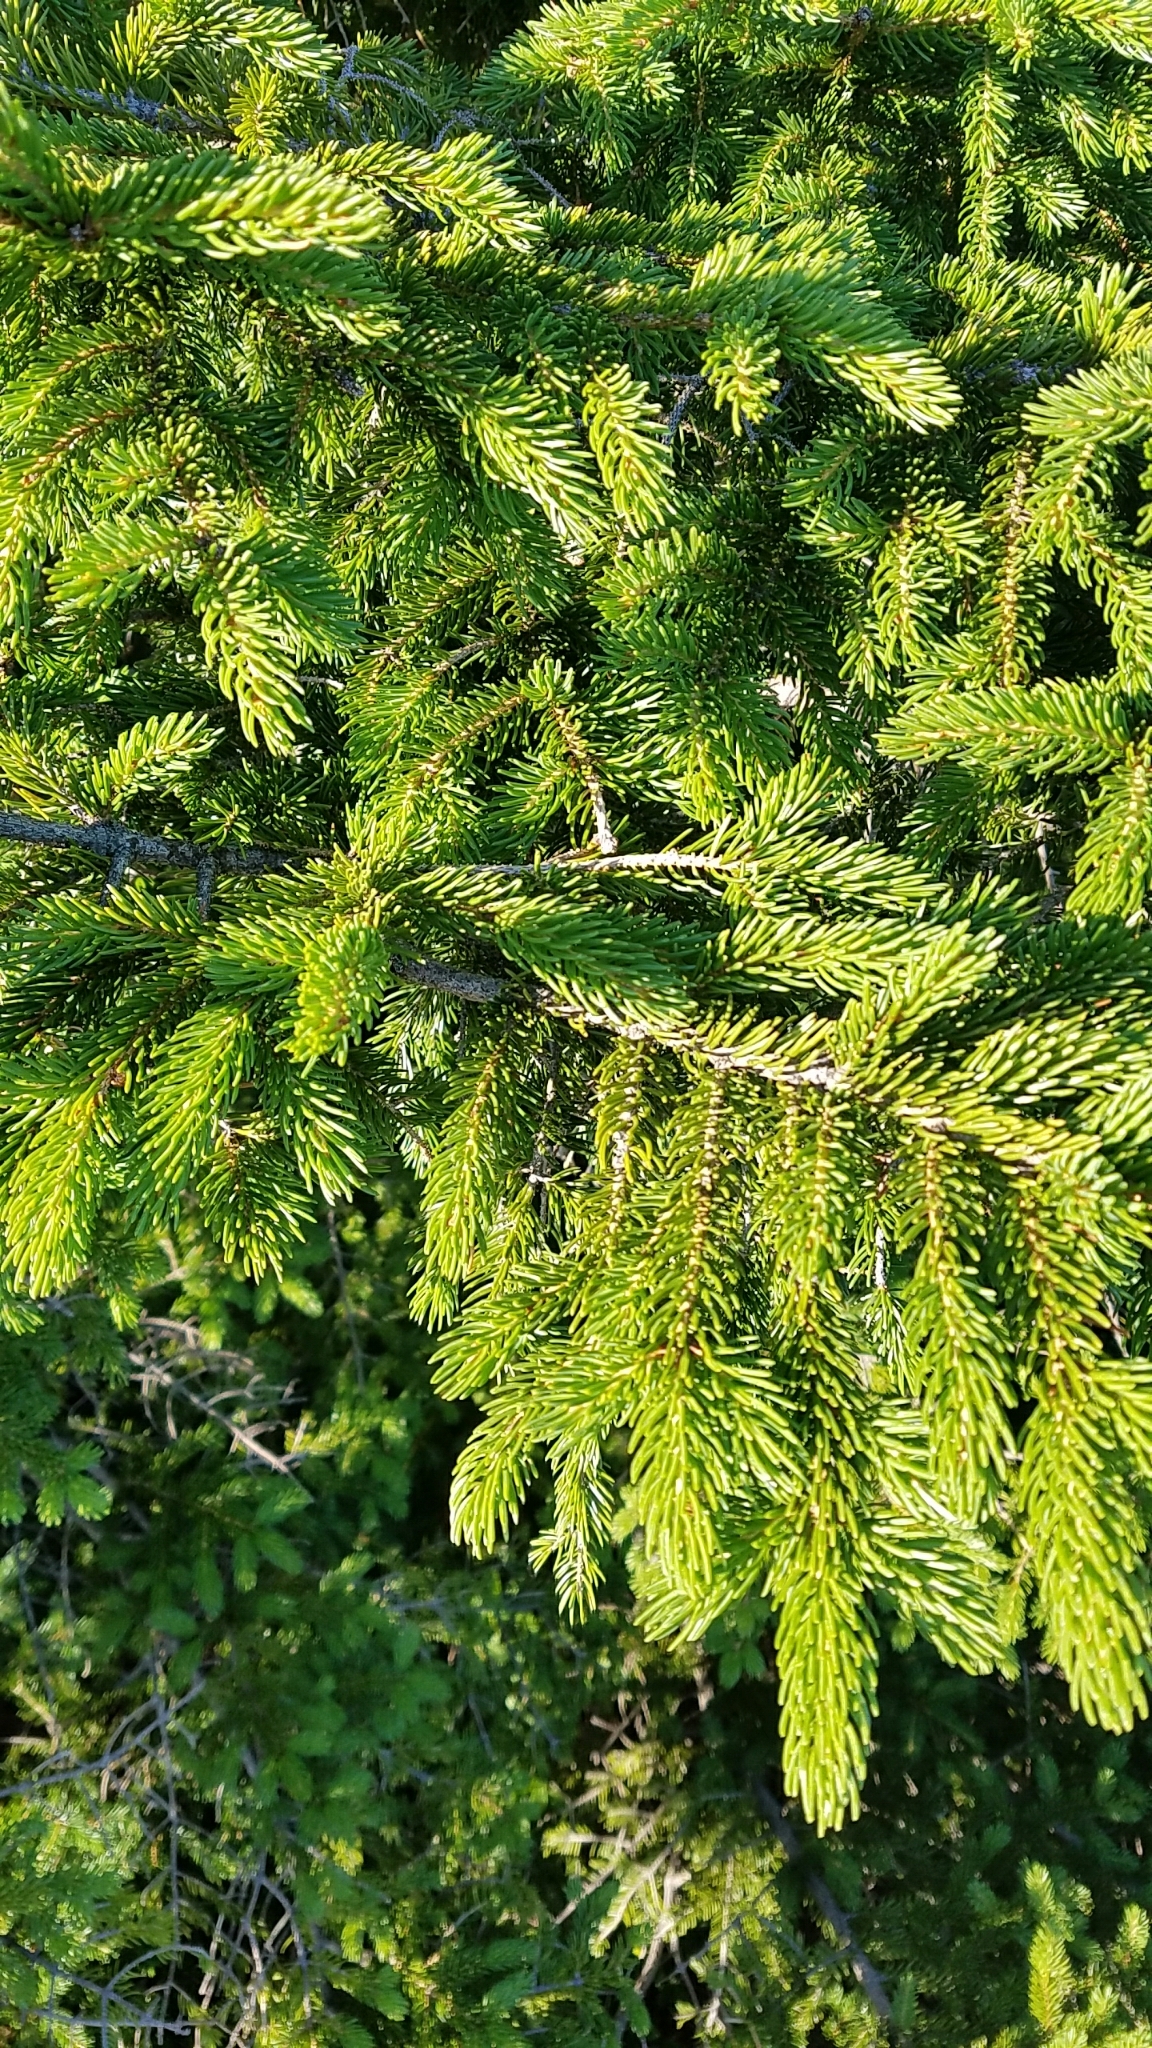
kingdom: Plantae
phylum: Tracheophyta
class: Pinopsida
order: Pinales
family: Pinaceae
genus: Picea
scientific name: Picea
